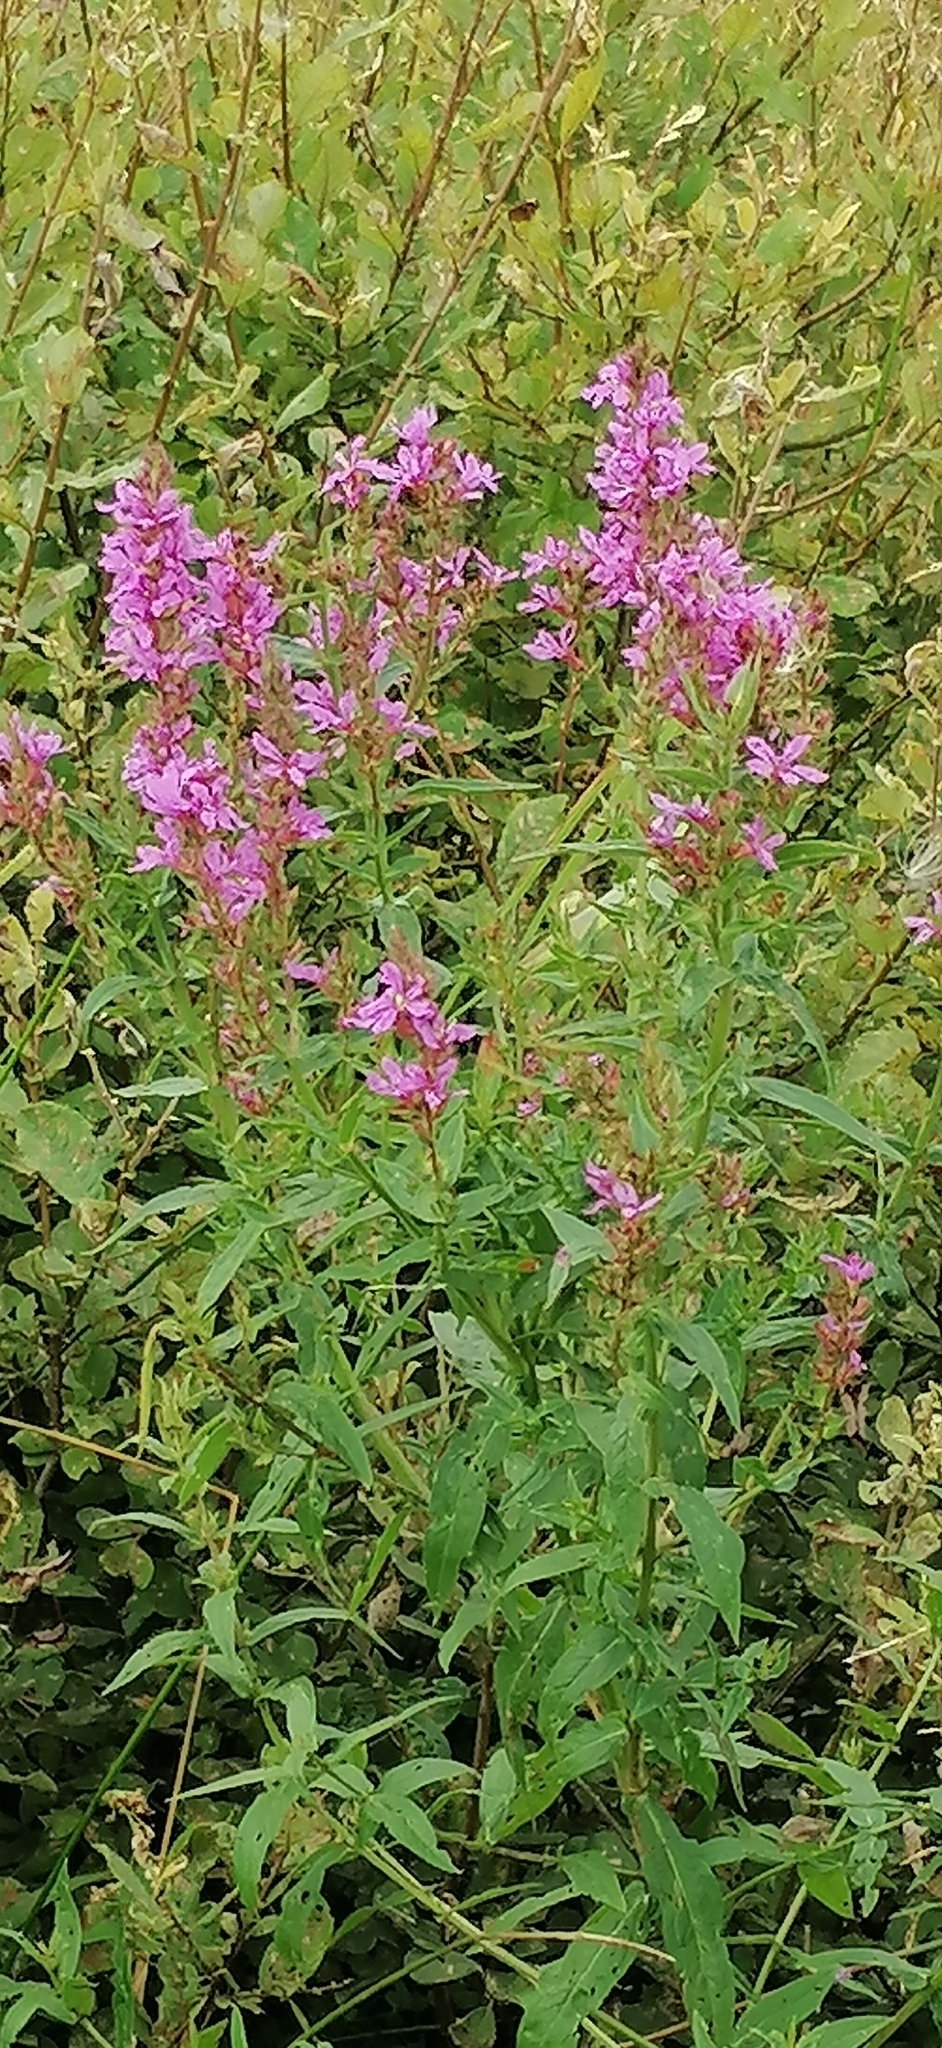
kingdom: Plantae
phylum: Tracheophyta
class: Magnoliopsida
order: Myrtales
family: Onagraceae
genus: Chamaenerion
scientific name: Chamaenerion angustifolium
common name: Fireweed
